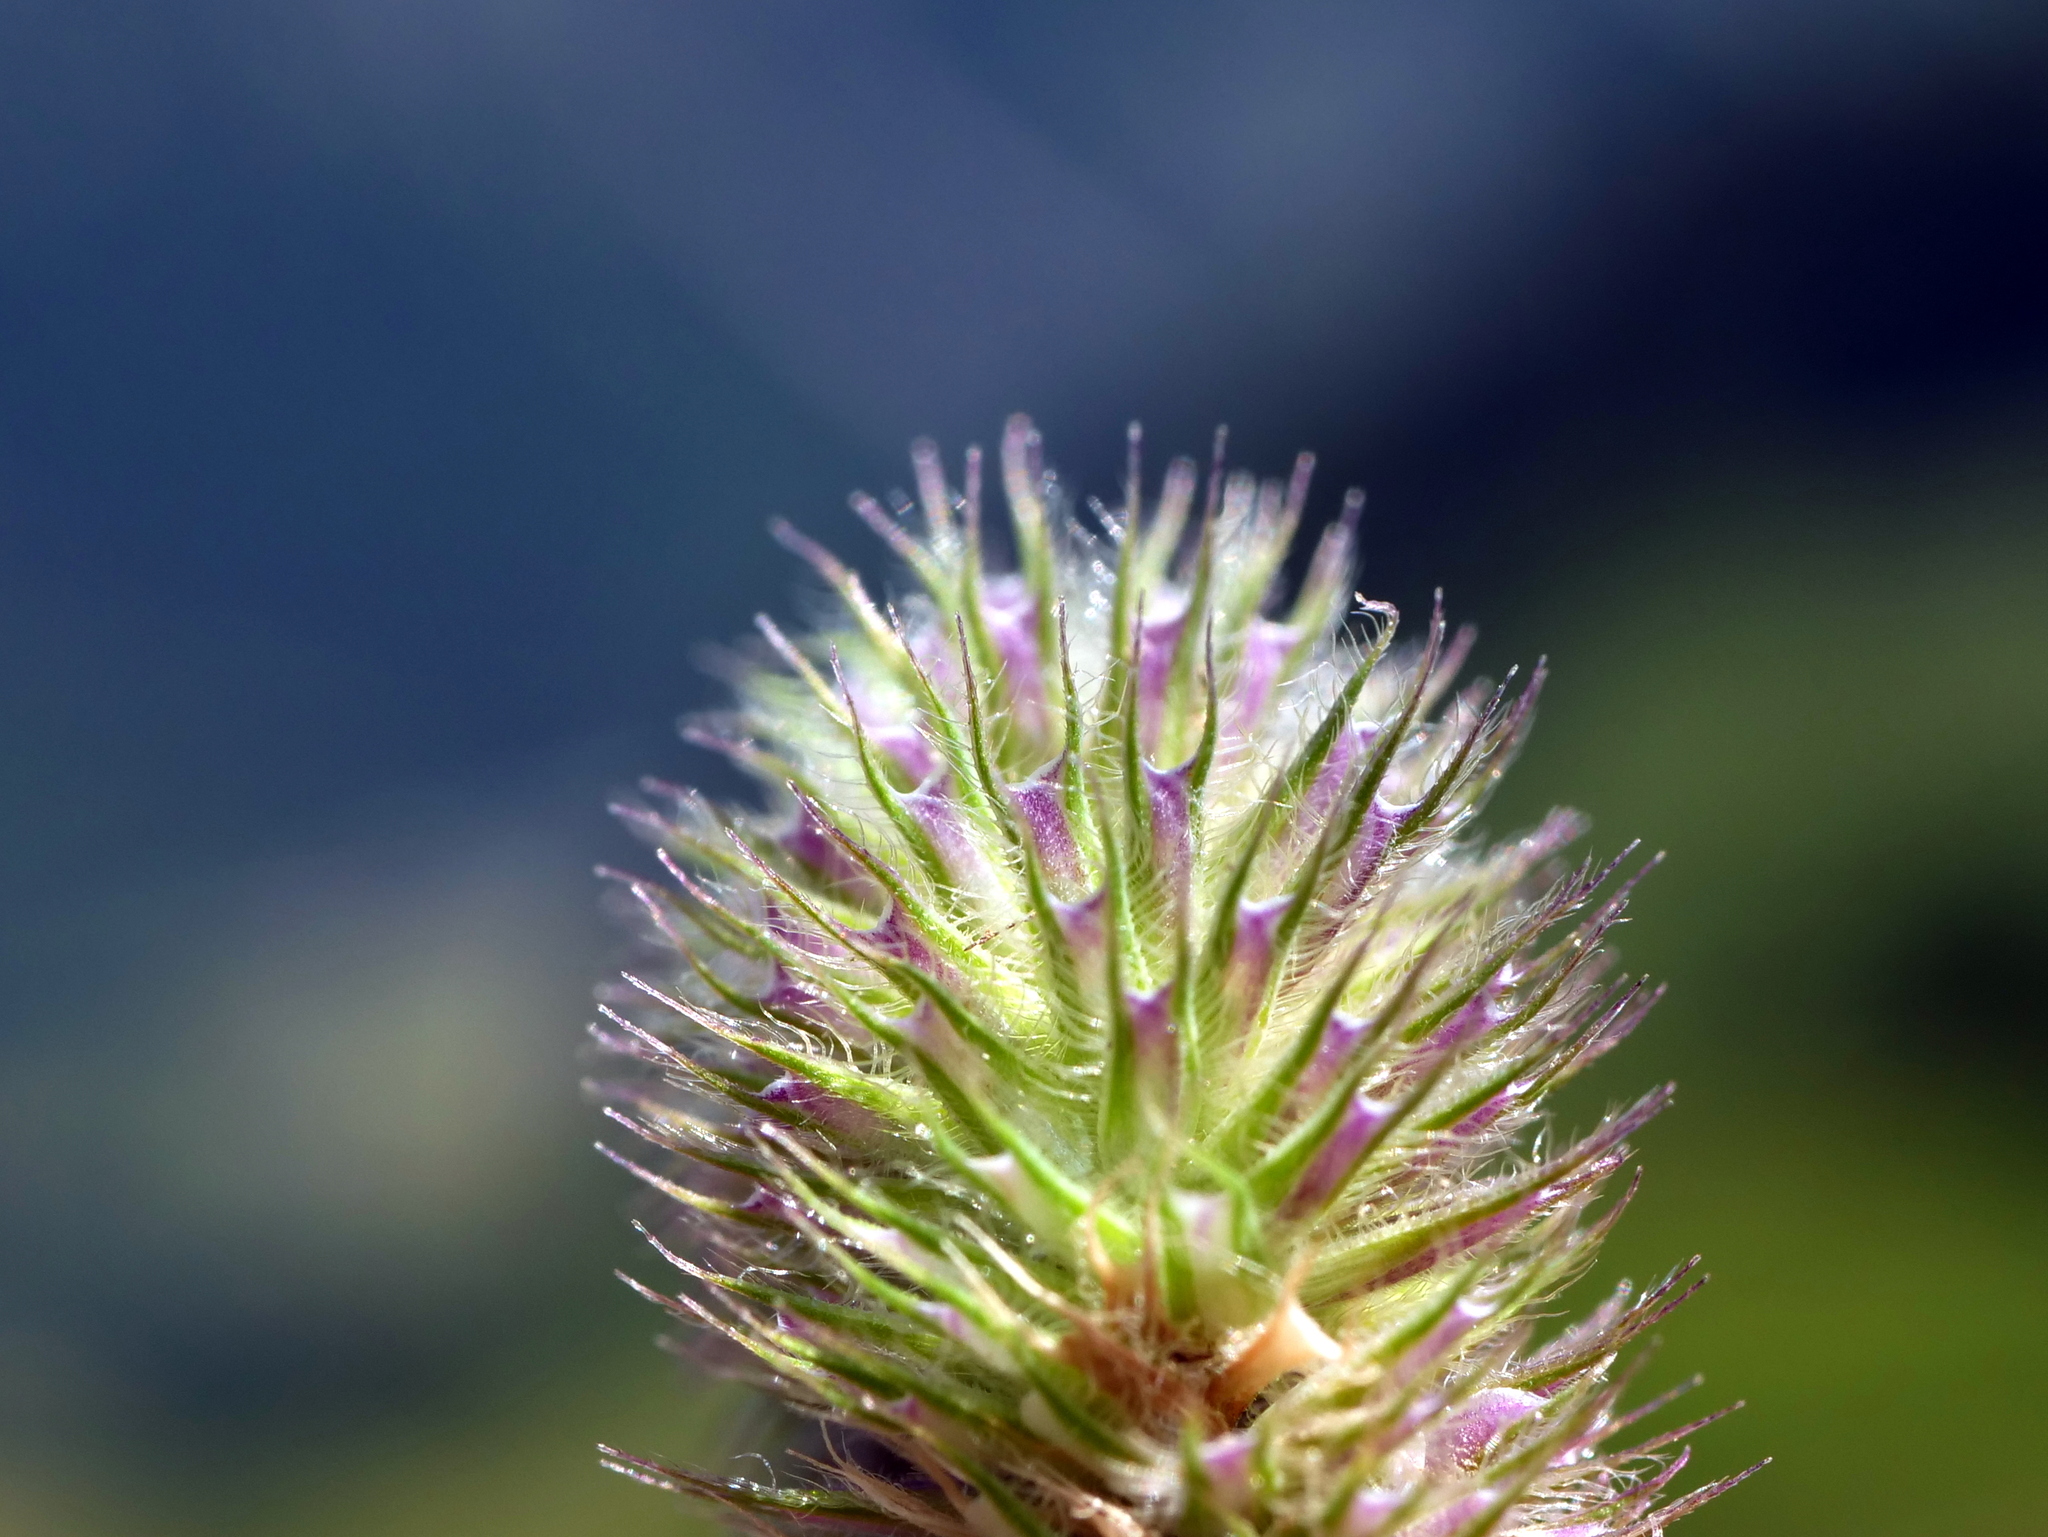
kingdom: Plantae
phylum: Tracheophyta
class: Liliopsida
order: Poales
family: Poaceae
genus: Phleum
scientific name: Phleum alpinum
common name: Alpine cat's-tail
